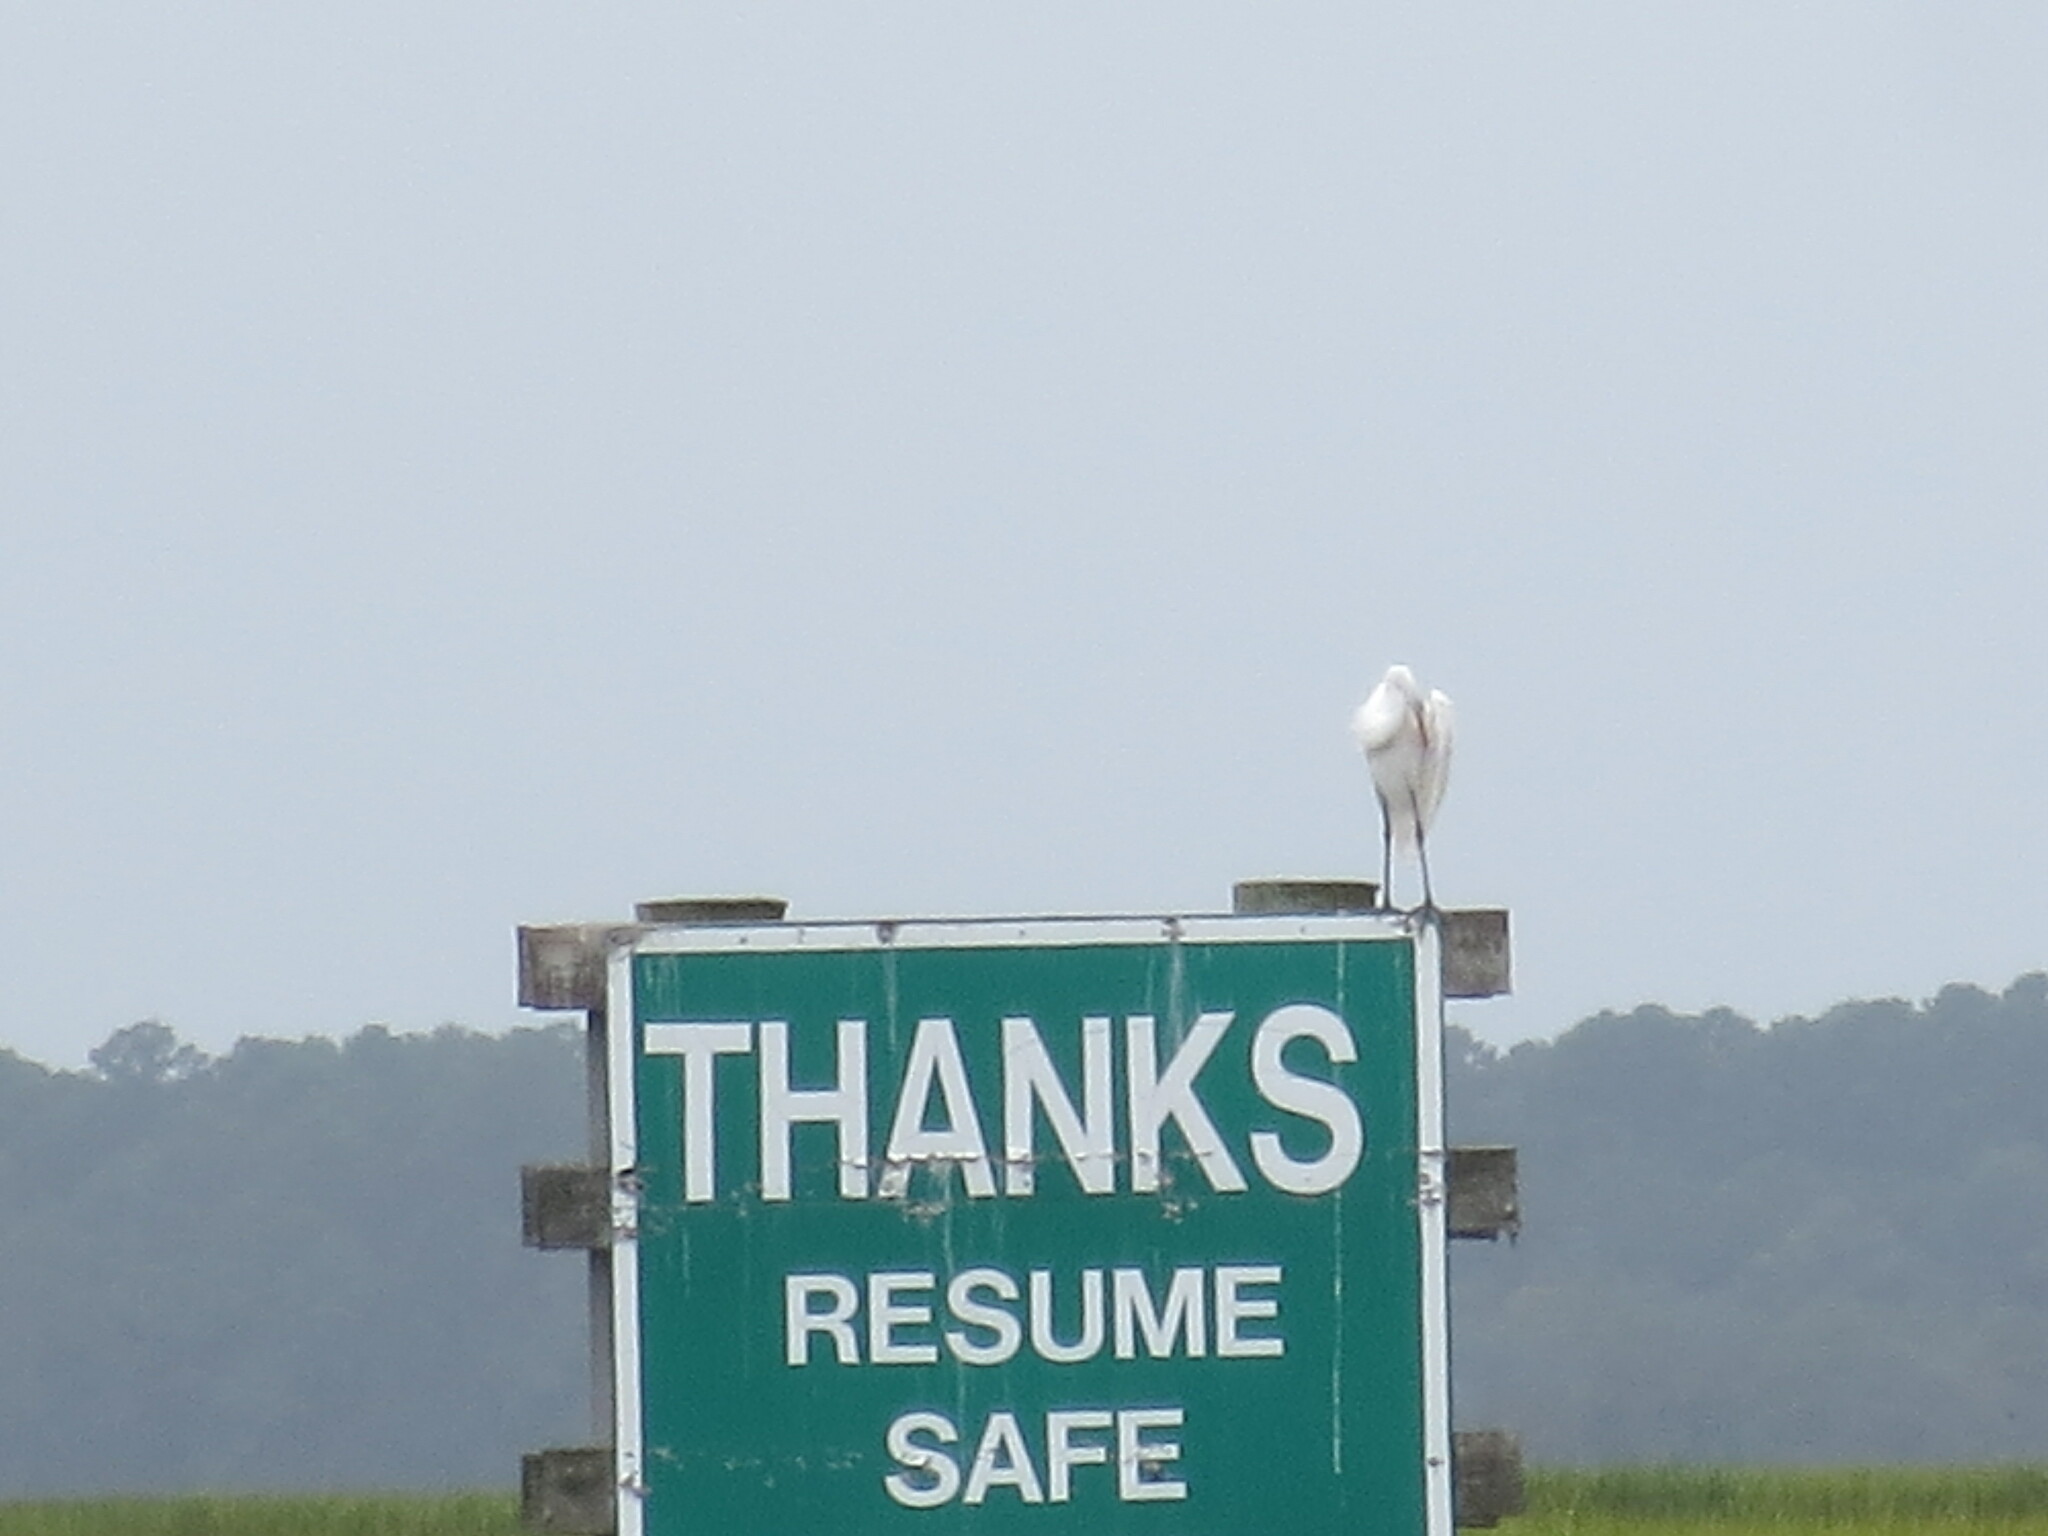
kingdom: Animalia
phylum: Chordata
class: Aves
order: Pelecaniformes
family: Ardeidae
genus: Ardea
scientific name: Ardea alba
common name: Great egret
